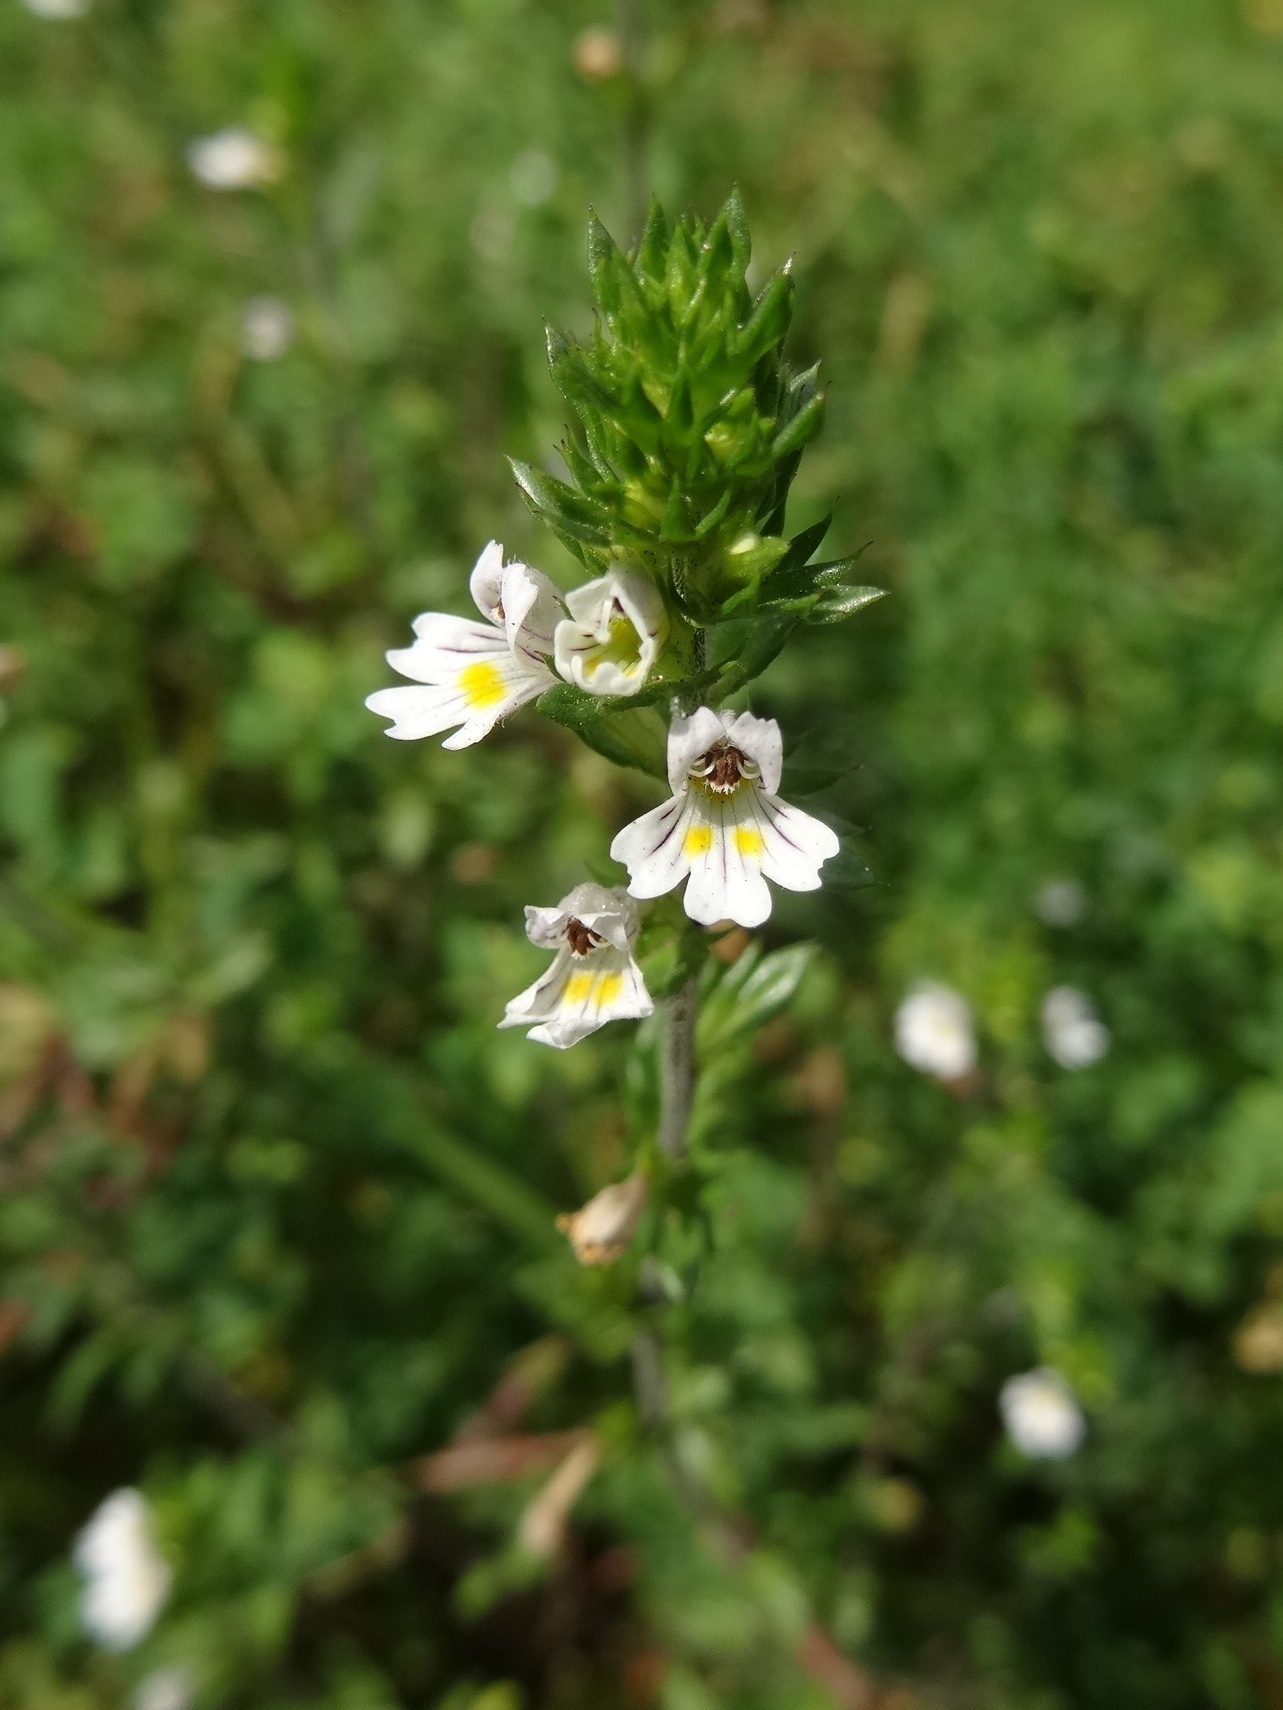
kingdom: Plantae
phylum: Tracheophyta
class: Magnoliopsida
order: Lamiales
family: Orobanchaceae
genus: Euphrasia
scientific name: Euphrasia nemorosa
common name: Common eyebright
